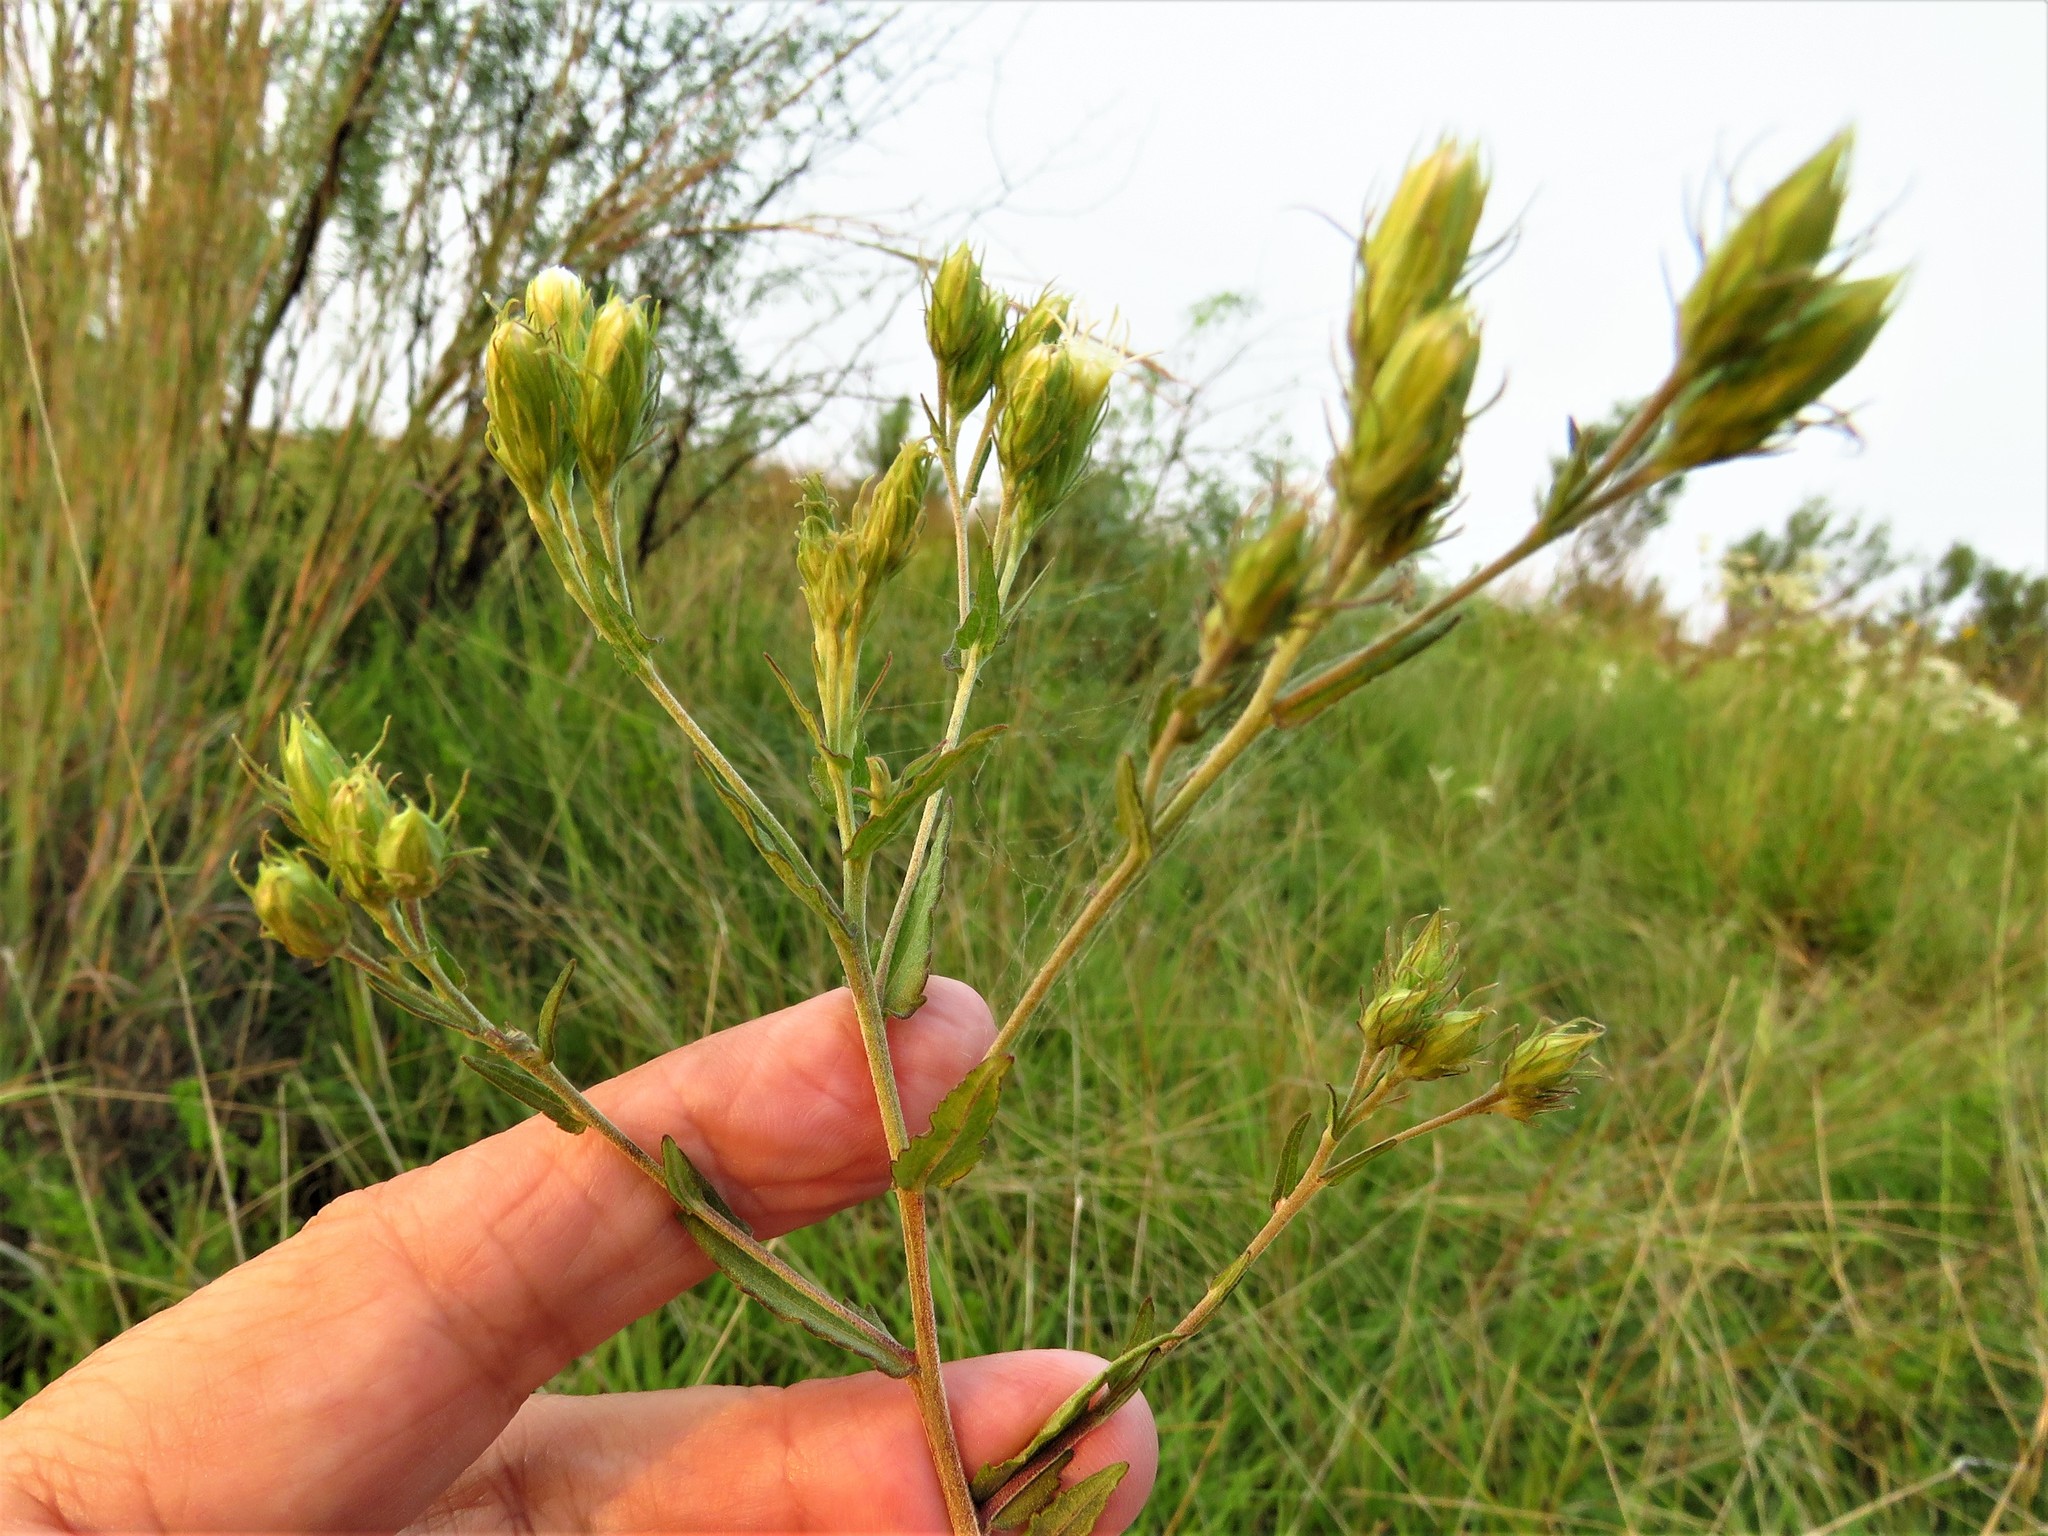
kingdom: Plantae
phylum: Tracheophyta
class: Magnoliopsida
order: Asterales
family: Asteraceae
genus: Brickellia
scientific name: Brickellia eupatorioides
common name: False boneset
